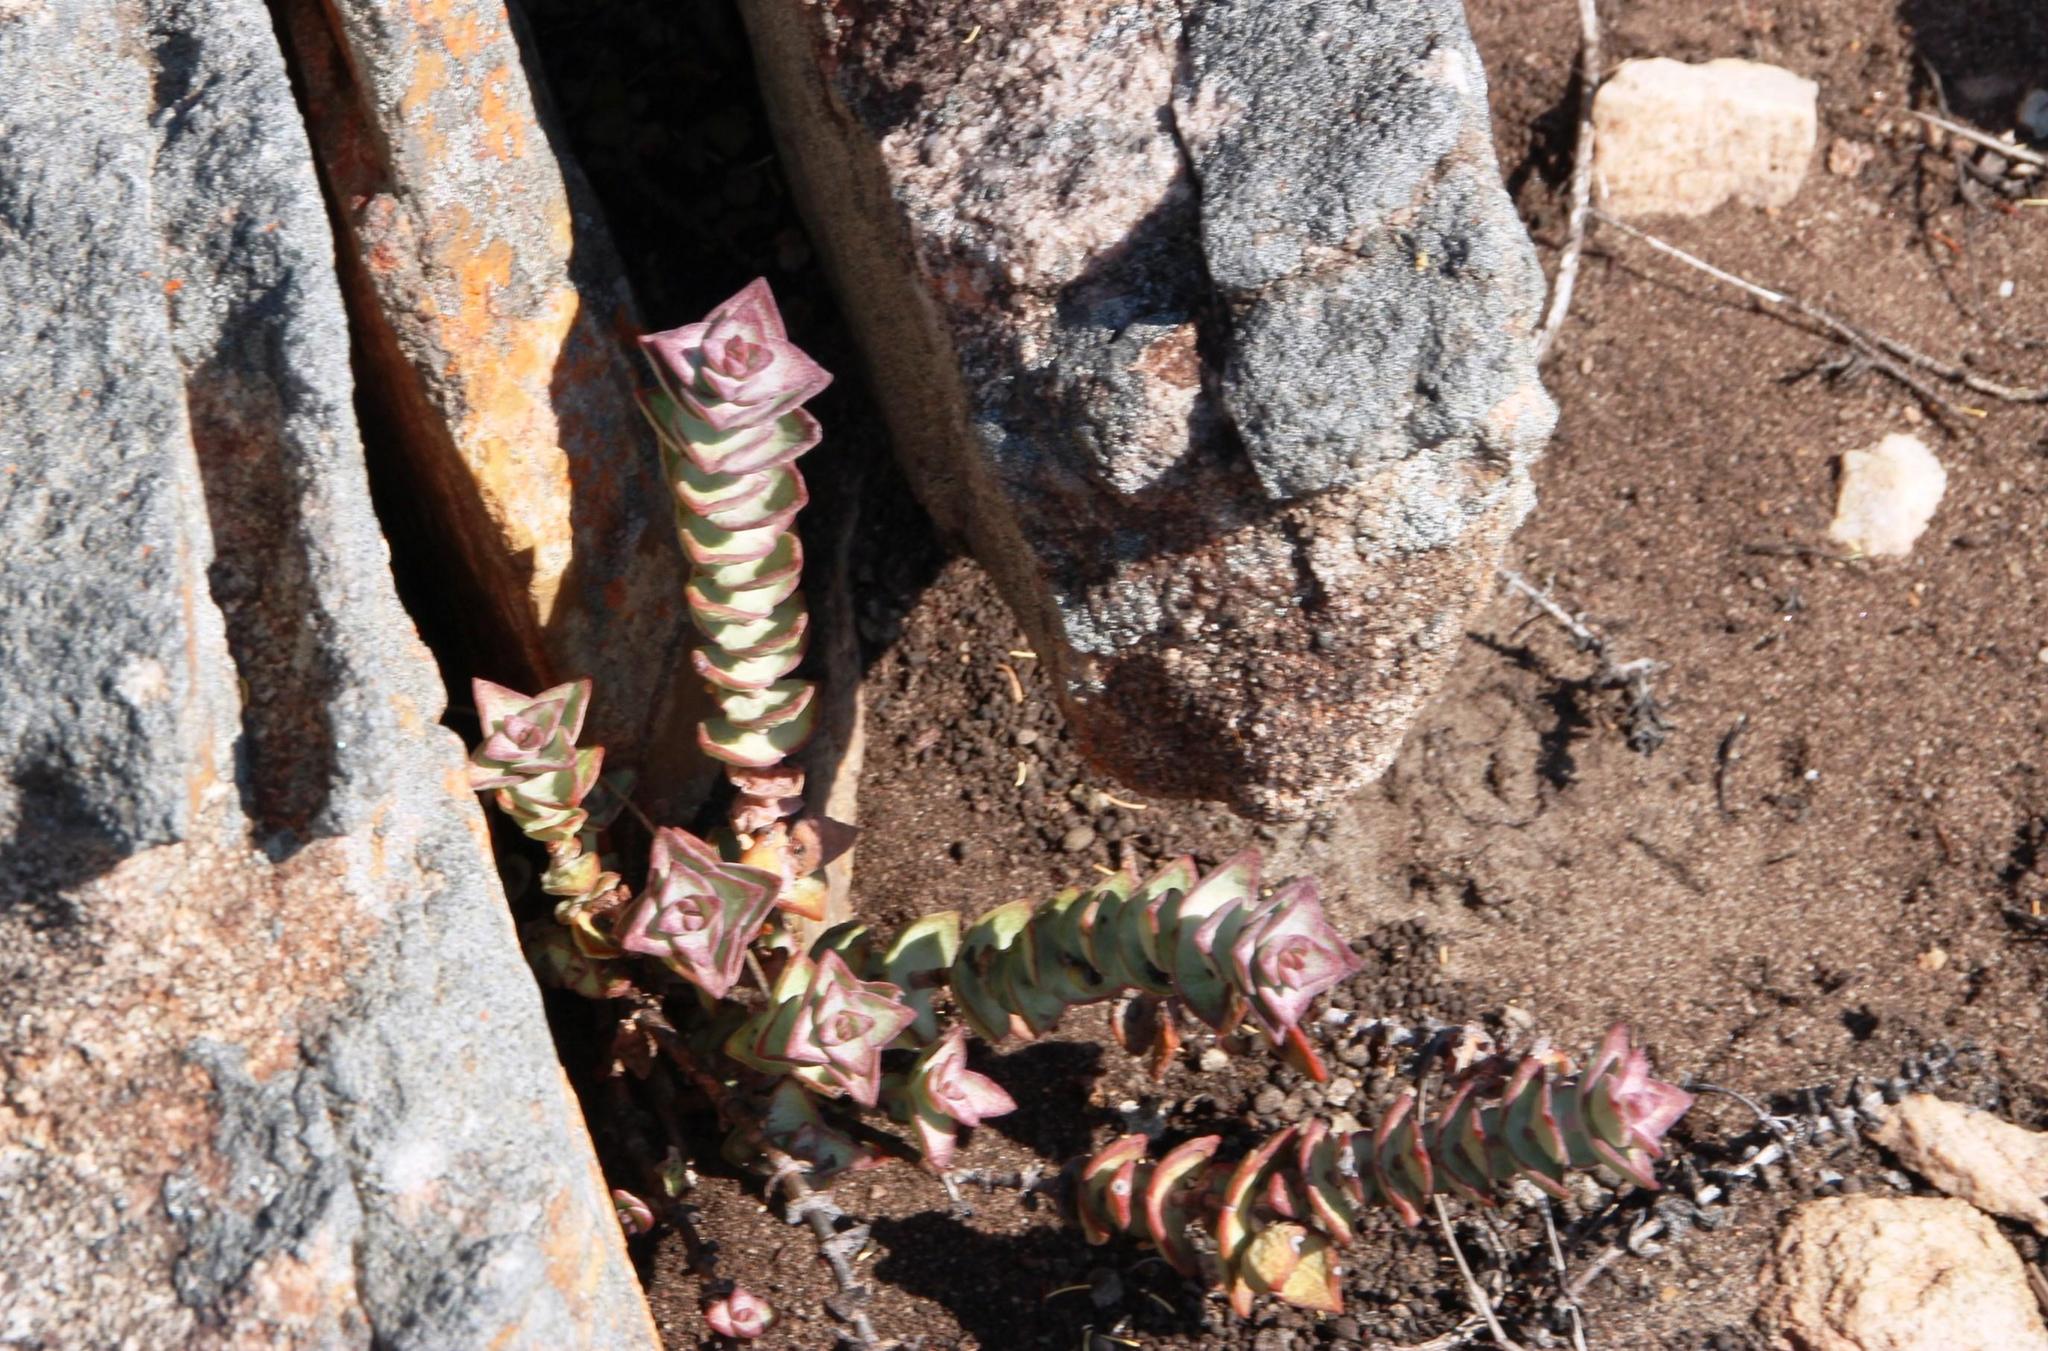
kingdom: Plantae
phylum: Tracheophyta
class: Magnoliopsida
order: Saxifragales
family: Crassulaceae
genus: Crassula
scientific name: Crassula perforata
